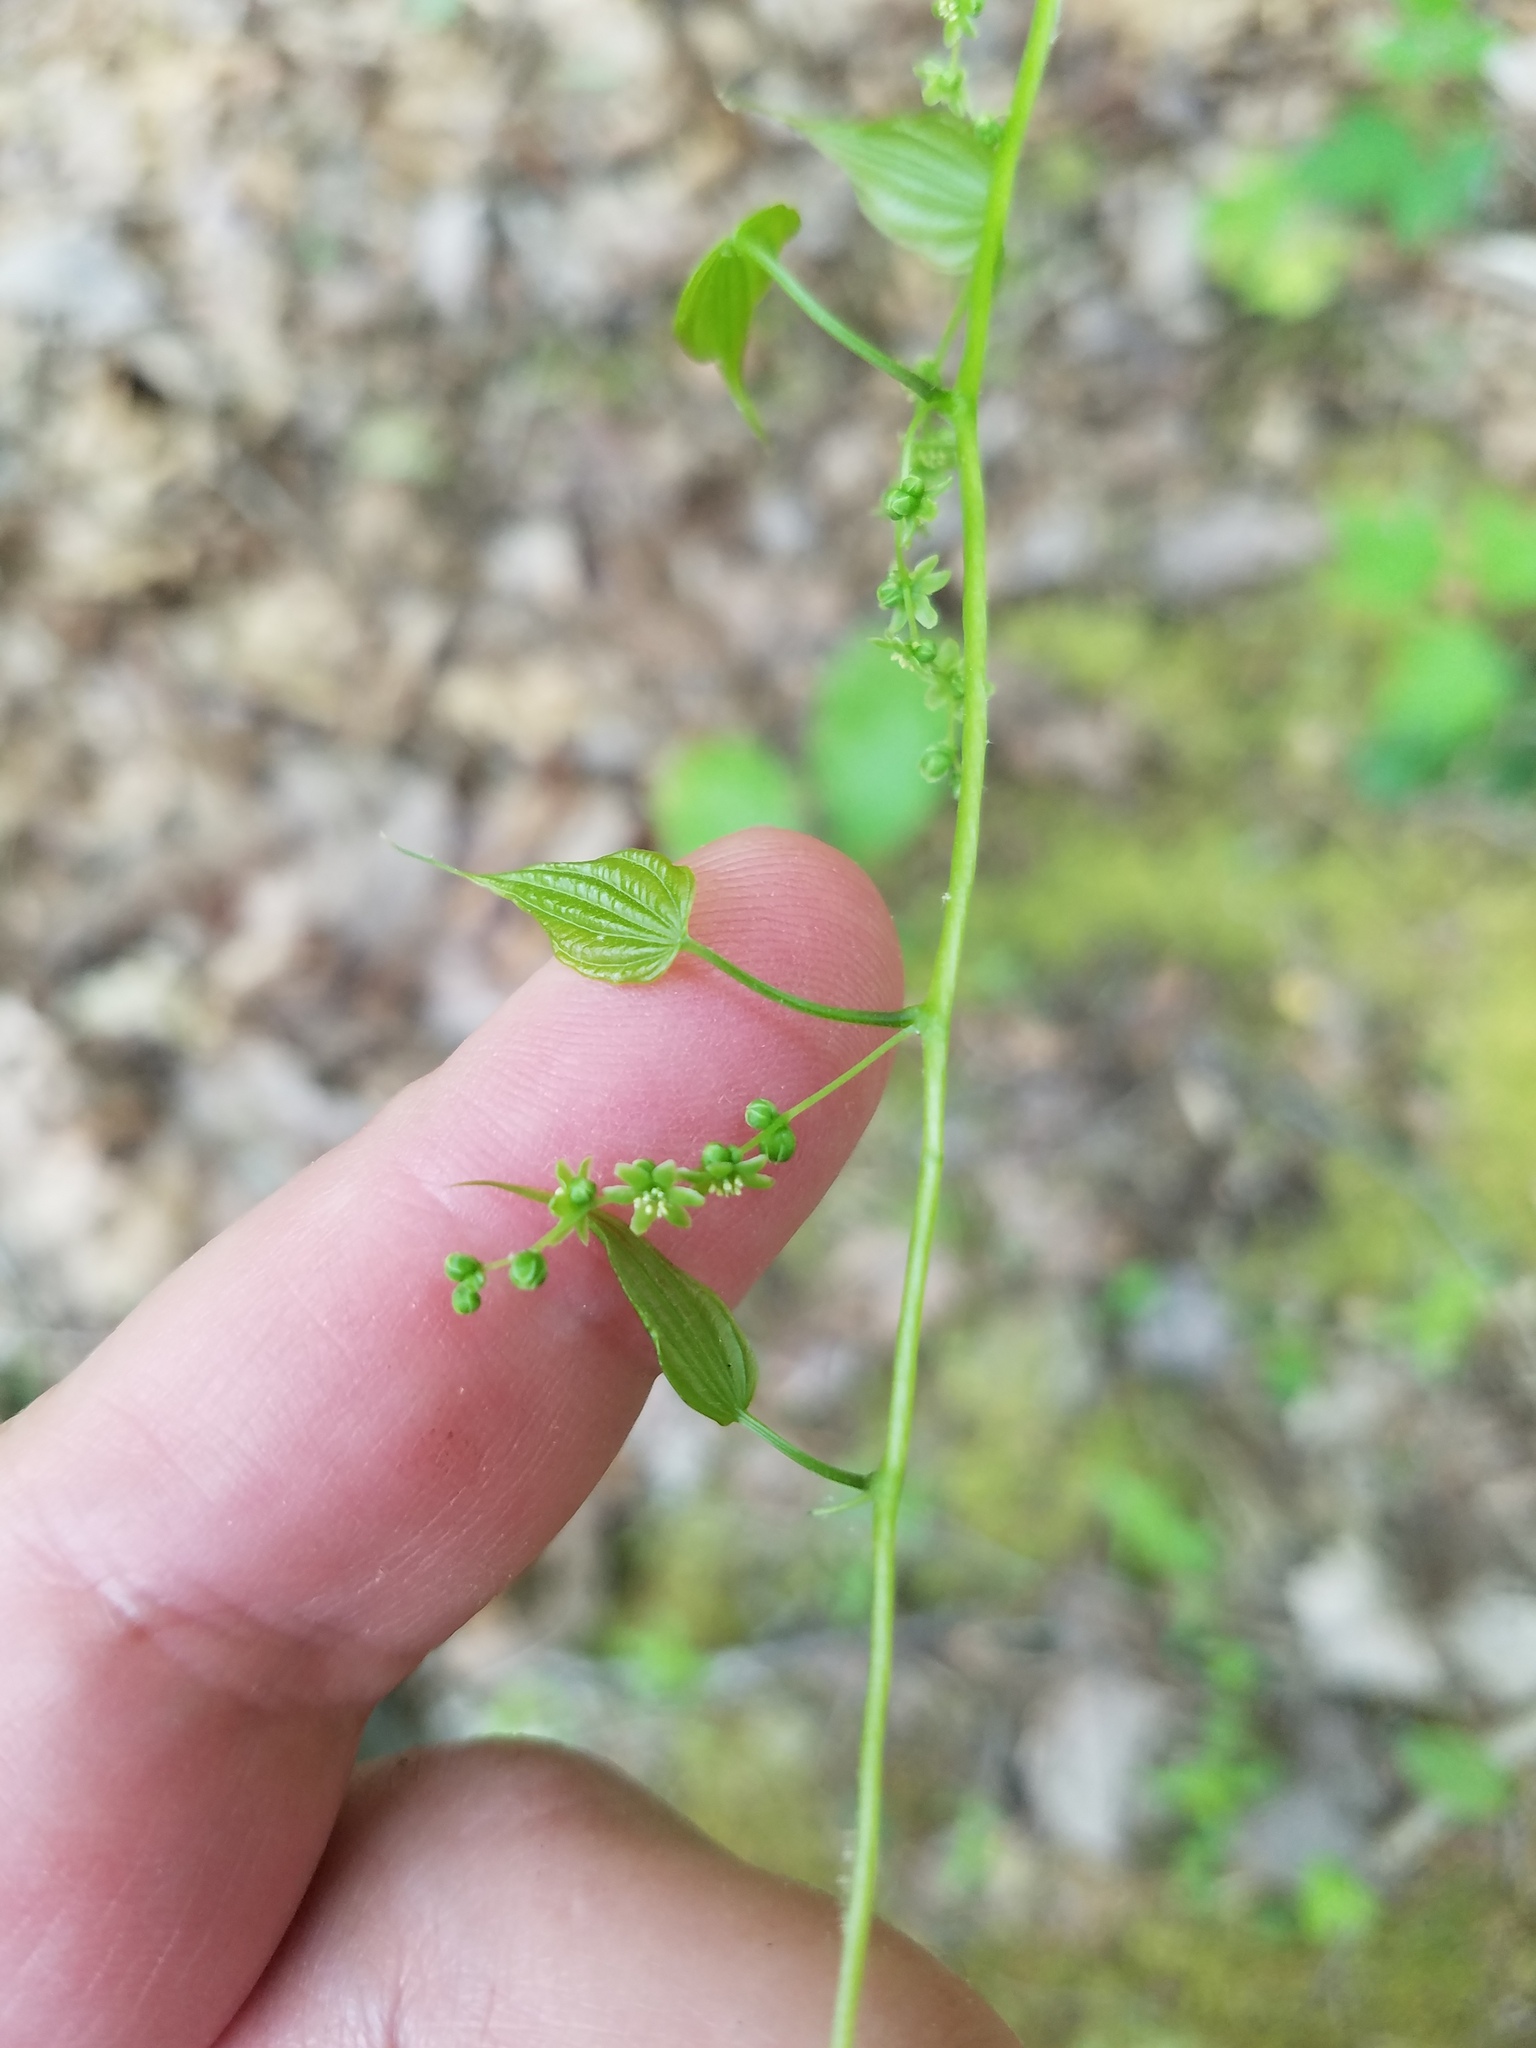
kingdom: Plantae
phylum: Tracheophyta
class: Liliopsida
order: Dioscoreales
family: Dioscoreaceae
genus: Dioscorea
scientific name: Dioscorea villosa
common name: Wild yam
